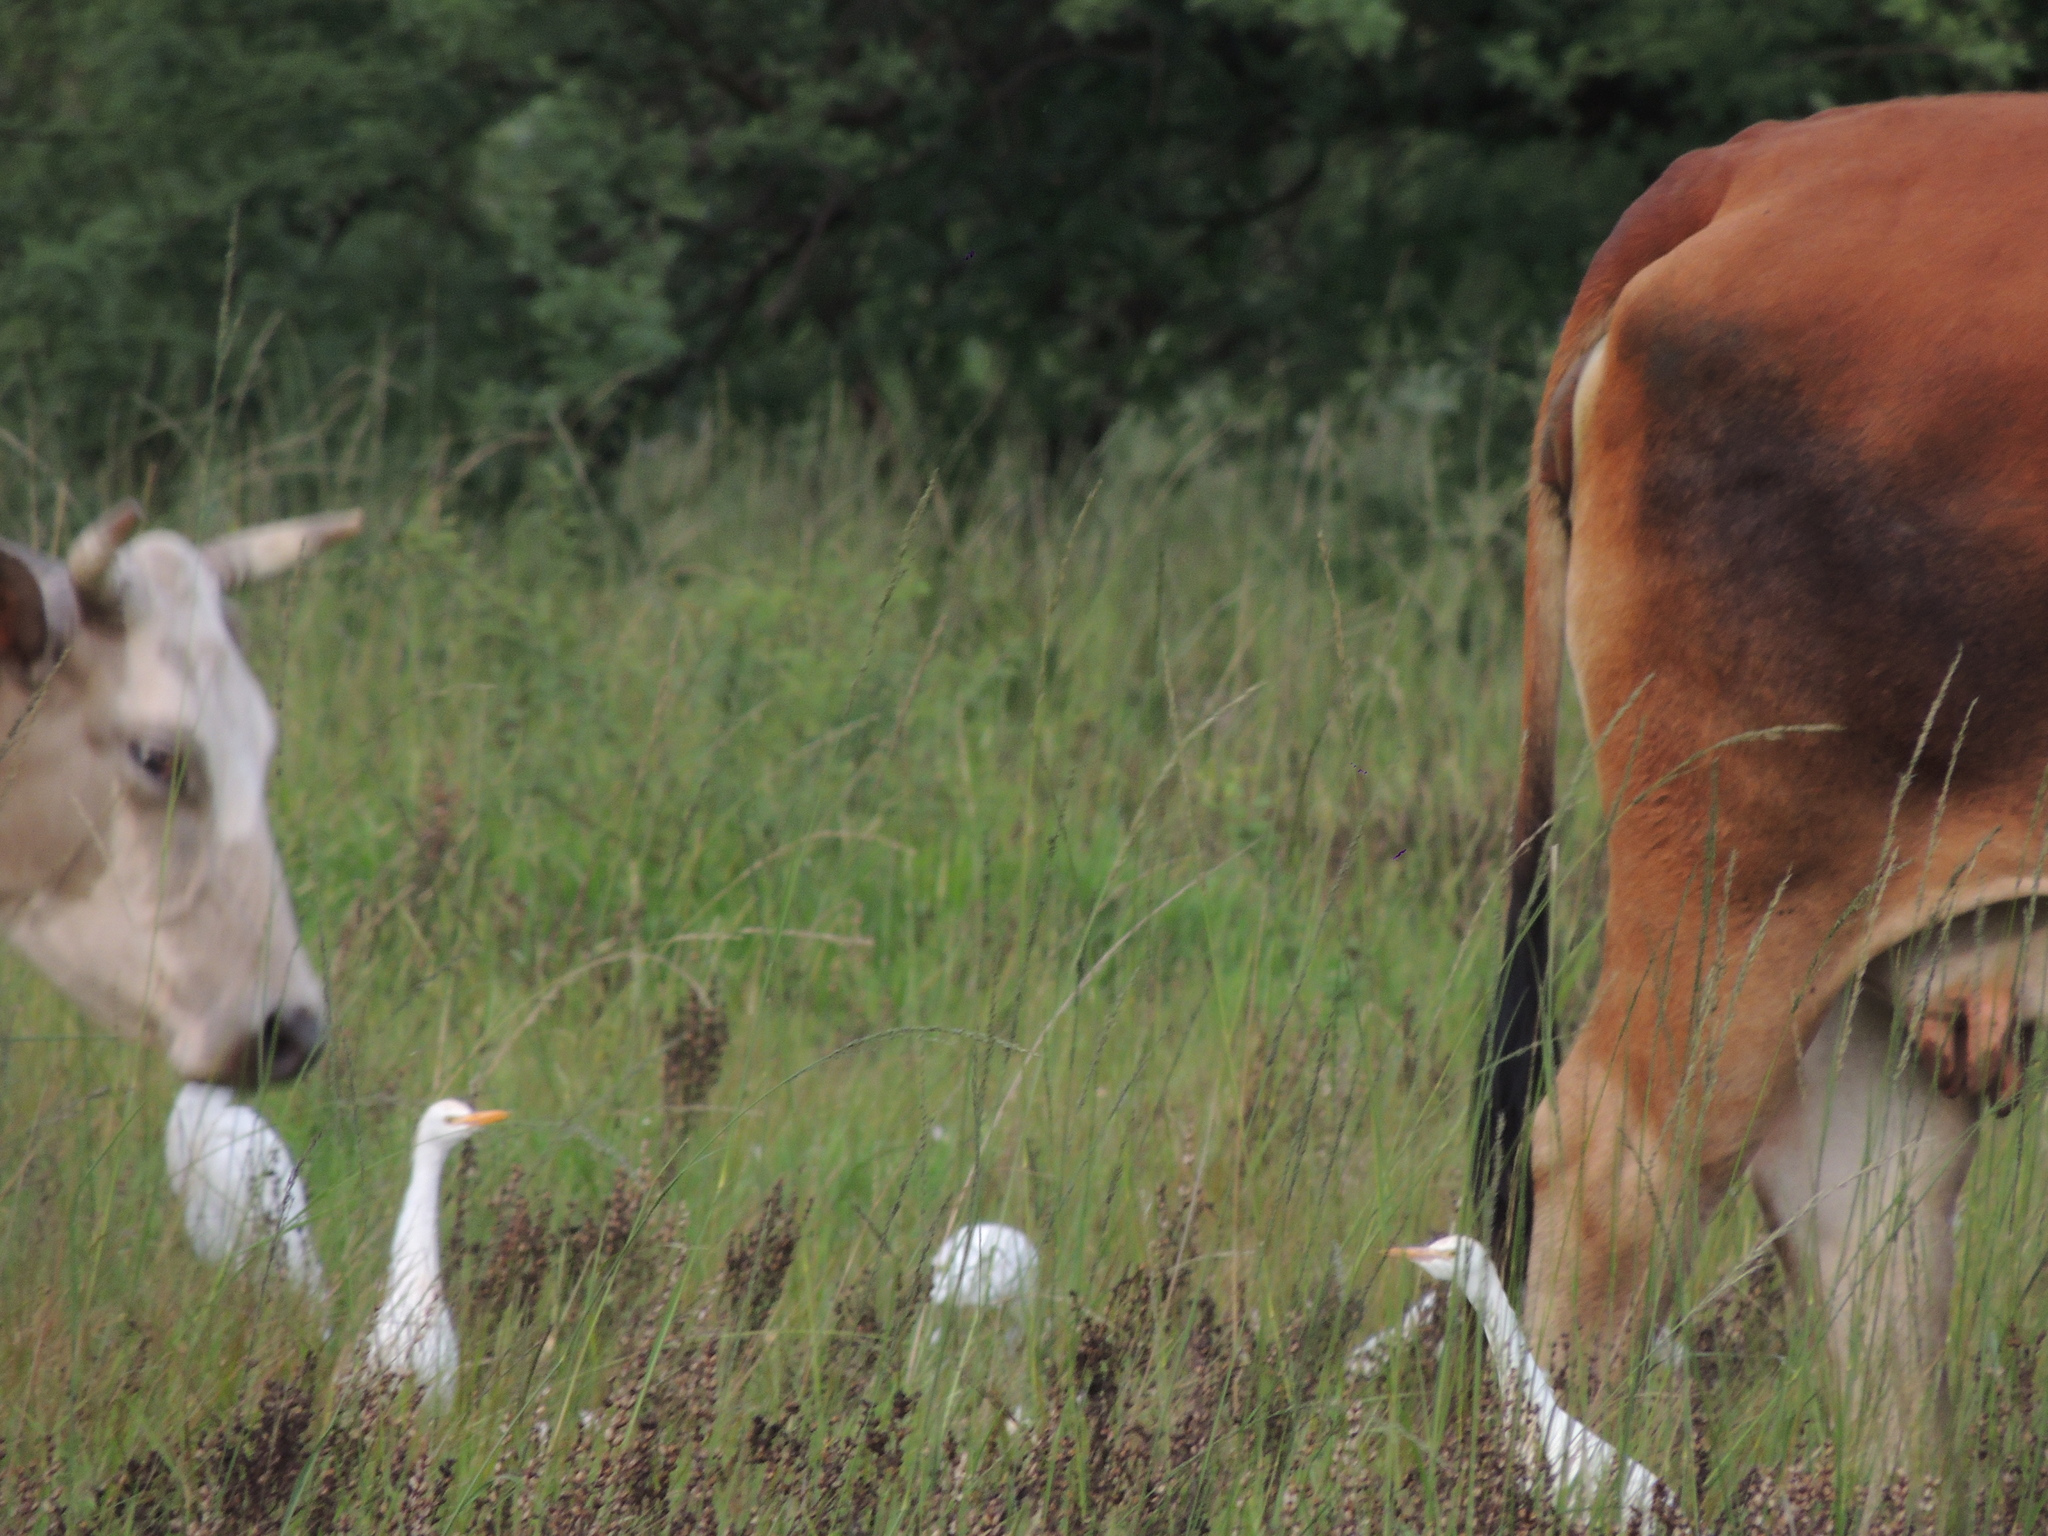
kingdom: Animalia
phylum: Chordata
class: Aves
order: Pelecaniformes
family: Ardeidae
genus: Bubulcus
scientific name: Bubulcus ibis
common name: Cattle egret
